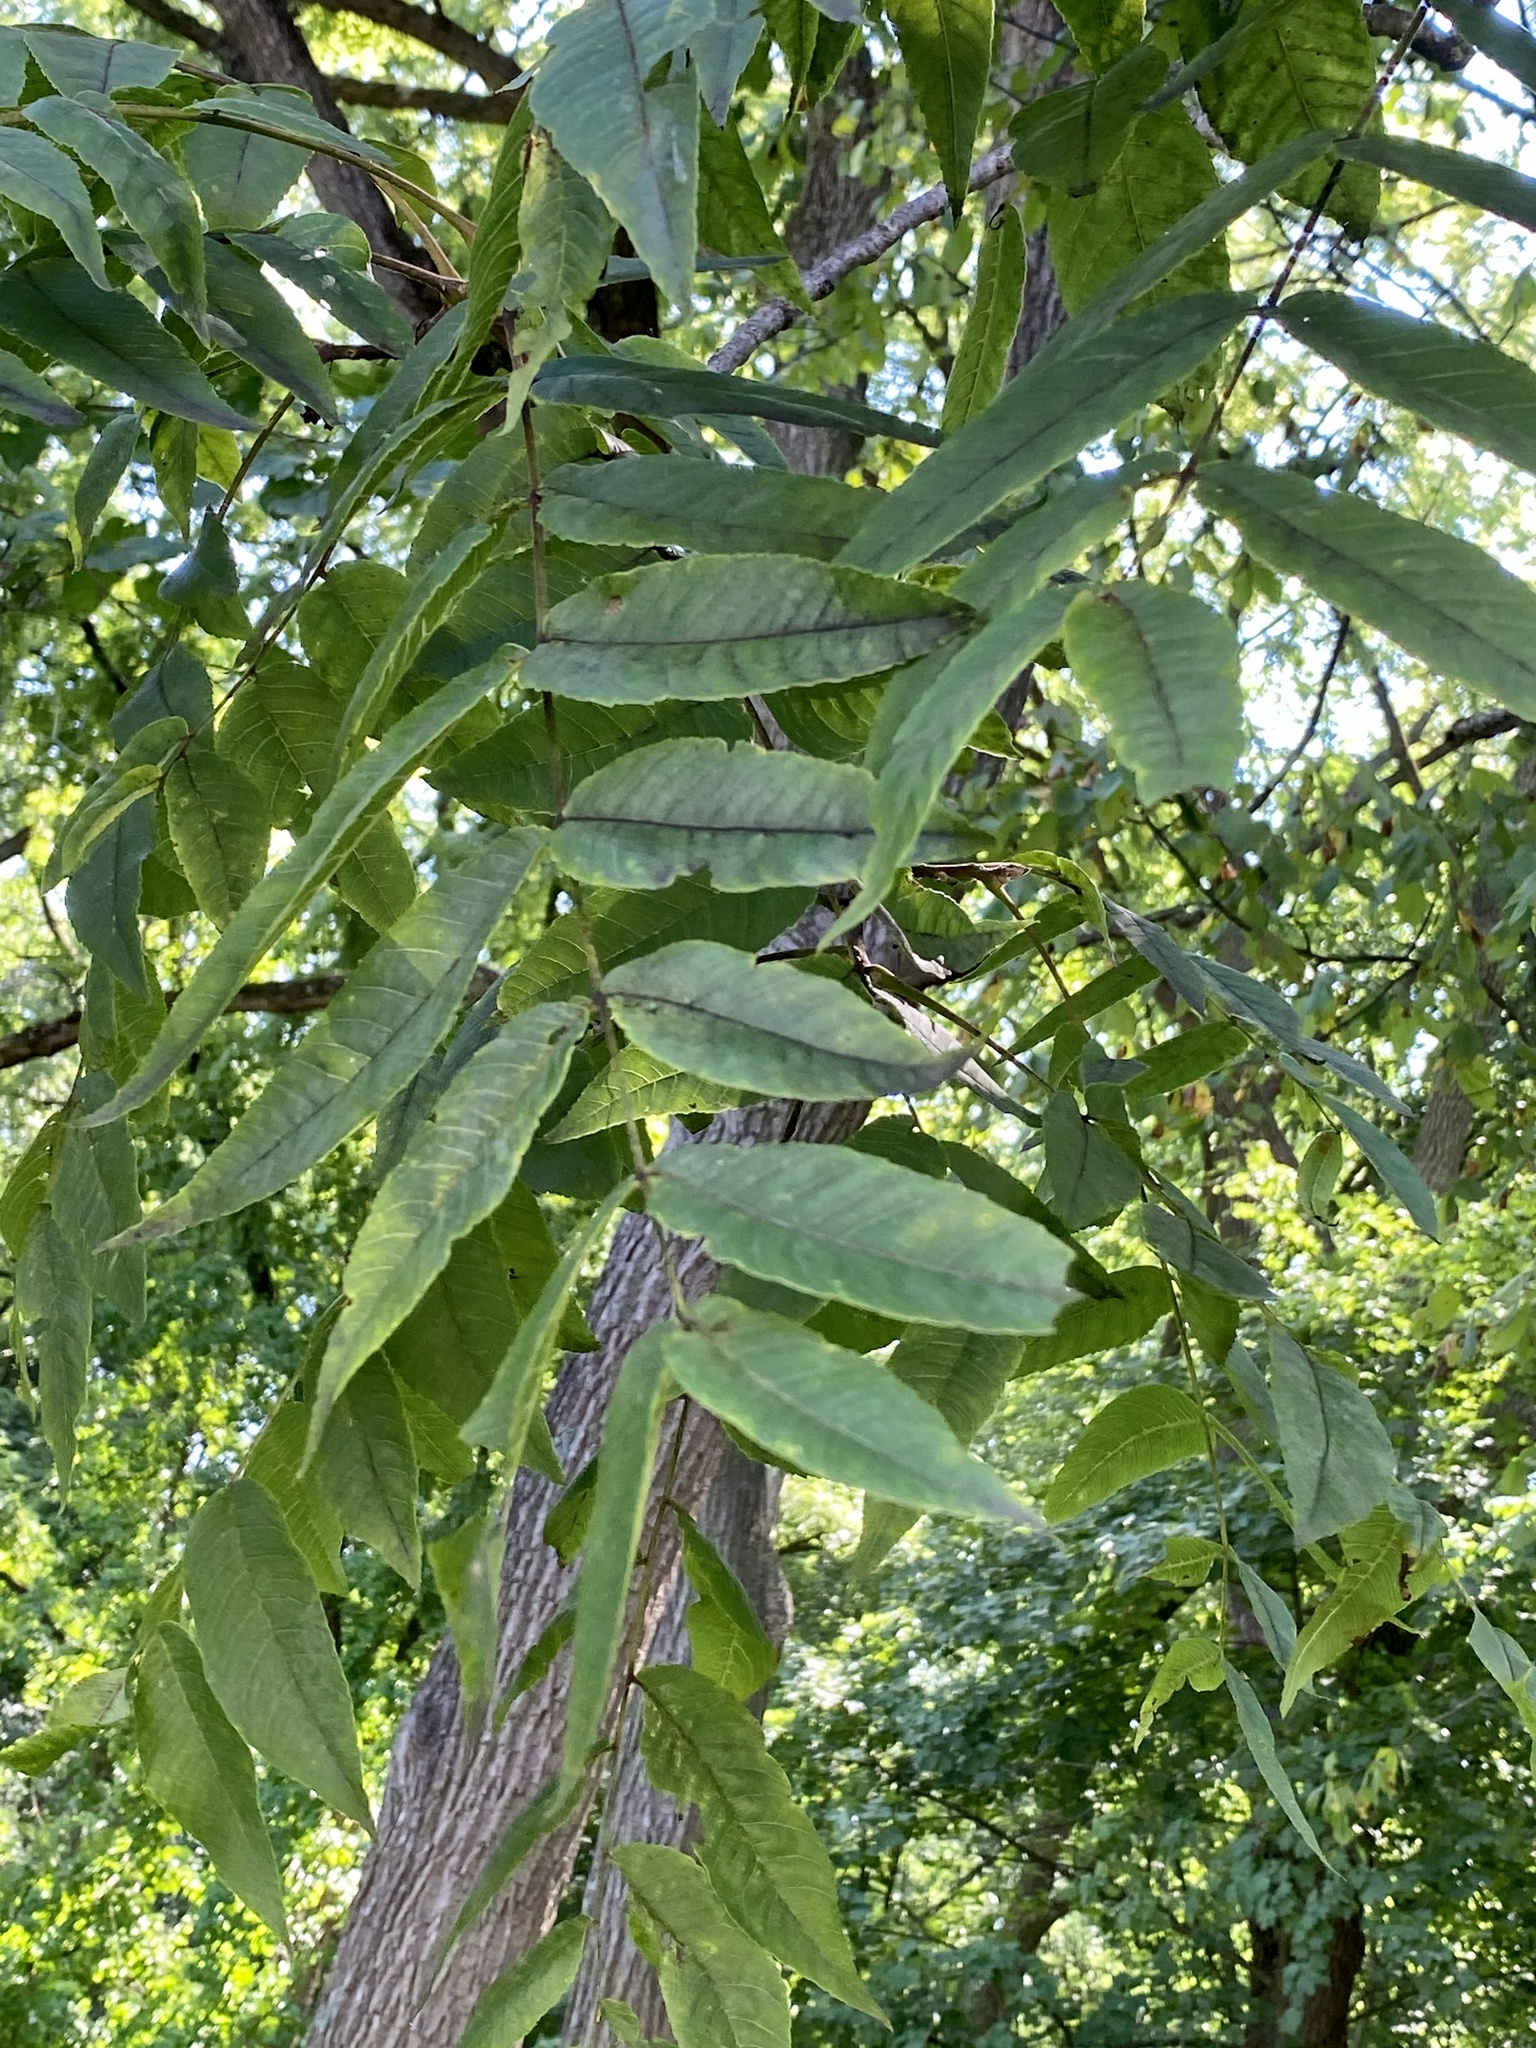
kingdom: Plantae
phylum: Tracheophyta
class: Magnoliopsida
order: Fagales
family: Juglandaceae
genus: Juglans
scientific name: Juglans nigra
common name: Black walnut
